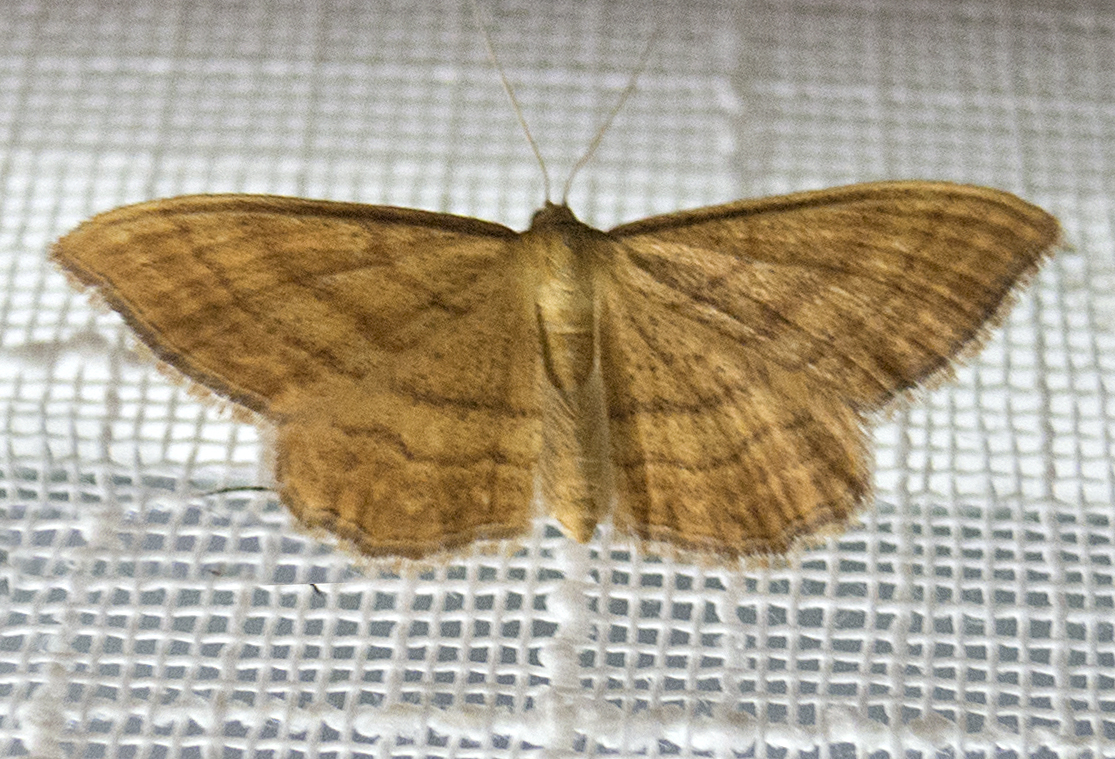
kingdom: Animalia
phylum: Arthropoda
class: Insecta
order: Lepidoptera
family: Geometridae
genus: Idaea
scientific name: Idaea ochrata
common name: Bright wave
